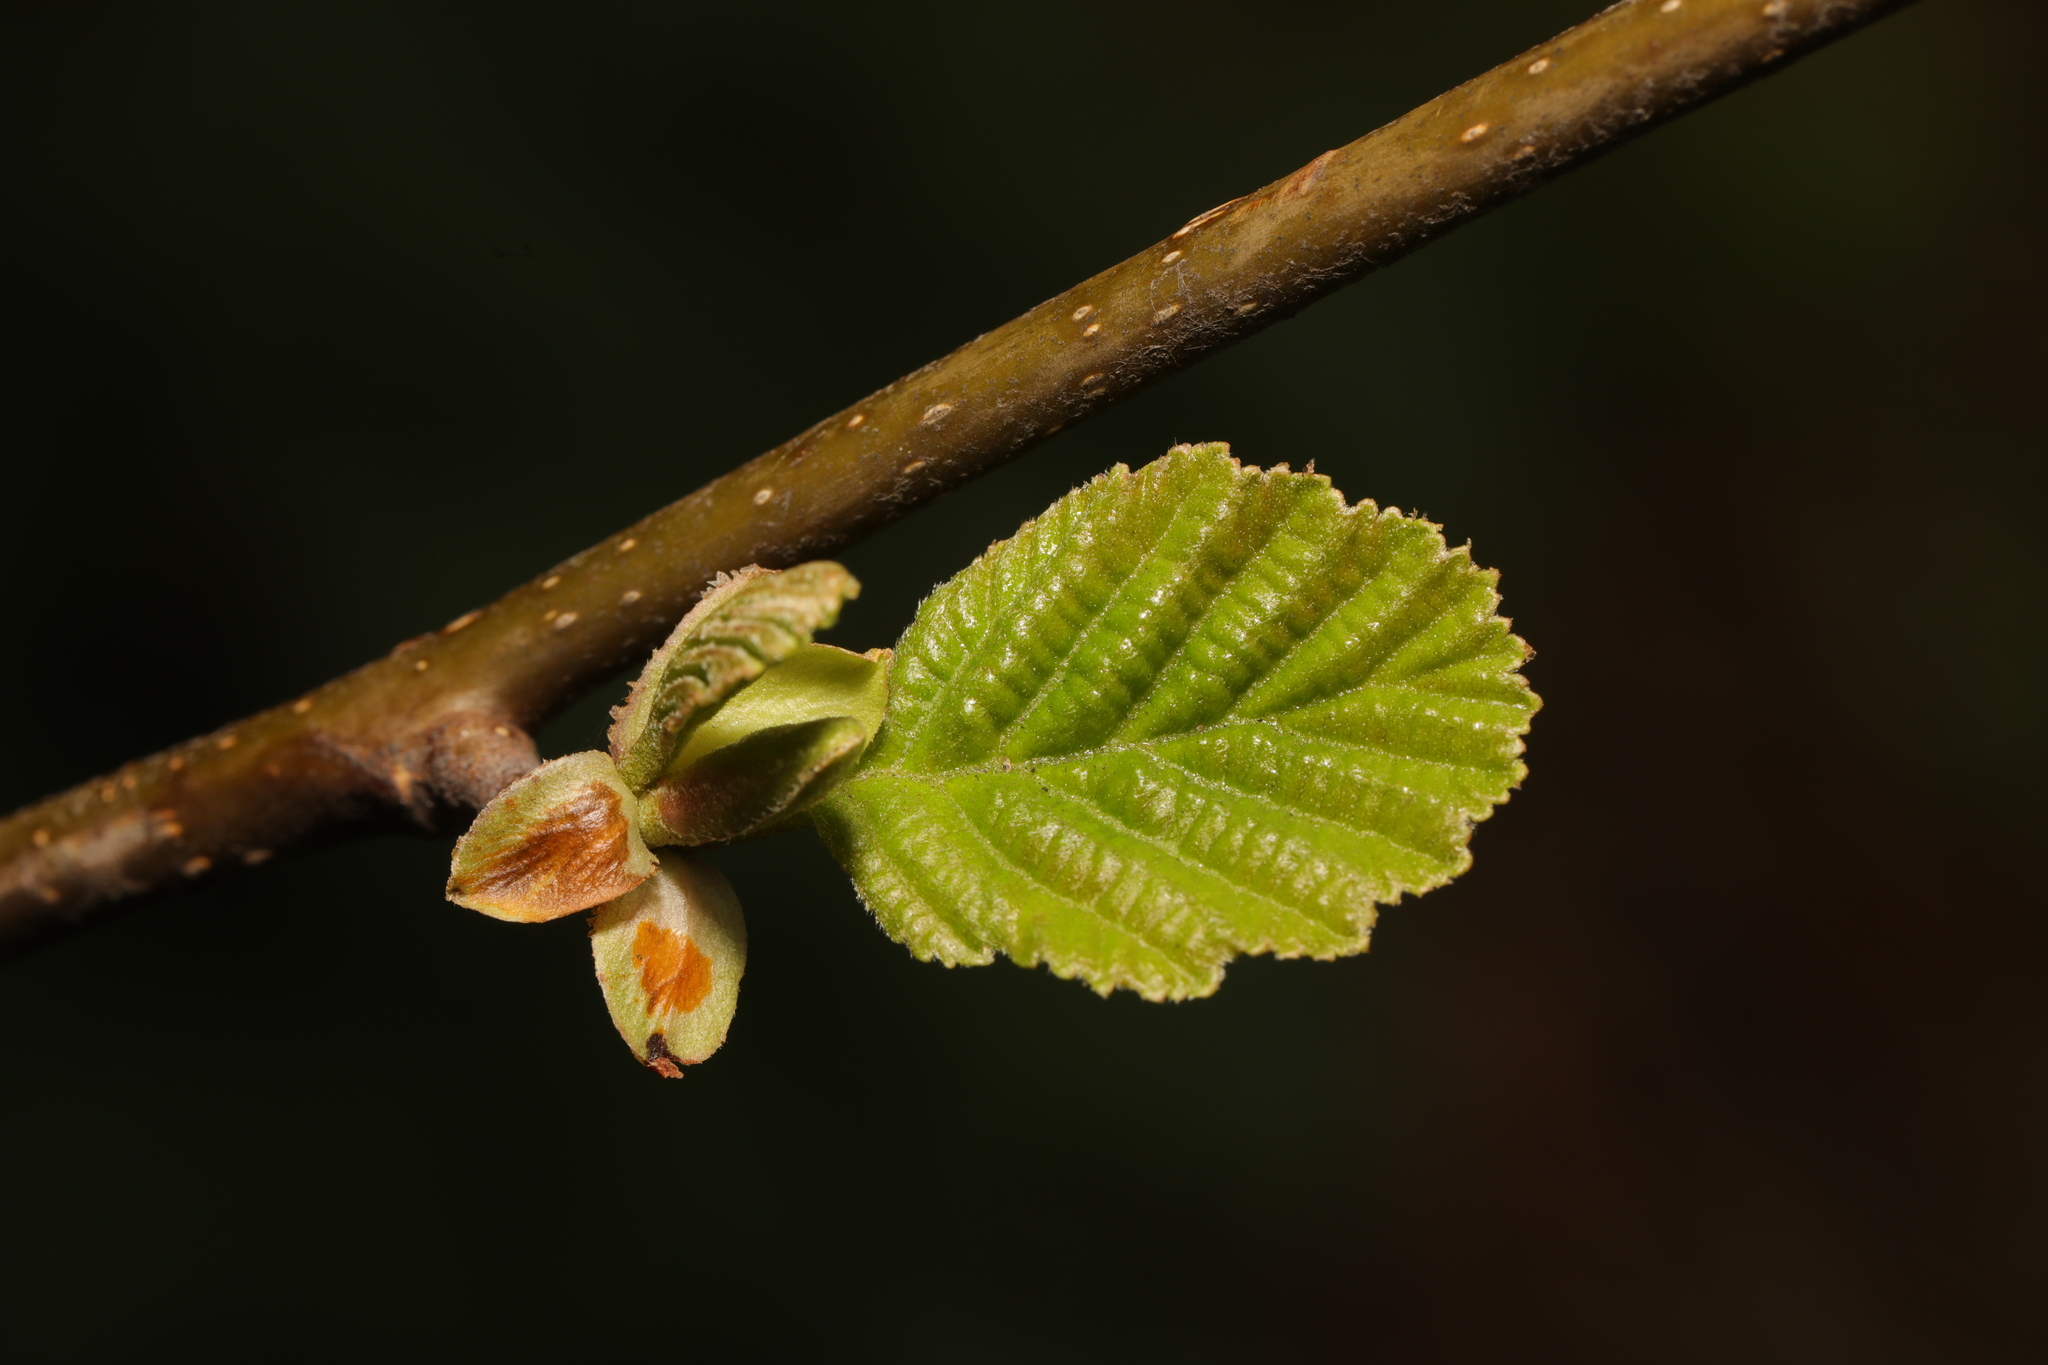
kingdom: Plantae
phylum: Tracheophyta
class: Magnoliopsida
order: Fagales
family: Betulaceae
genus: Alnus
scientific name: Alnus glutinosa
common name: Black alder
